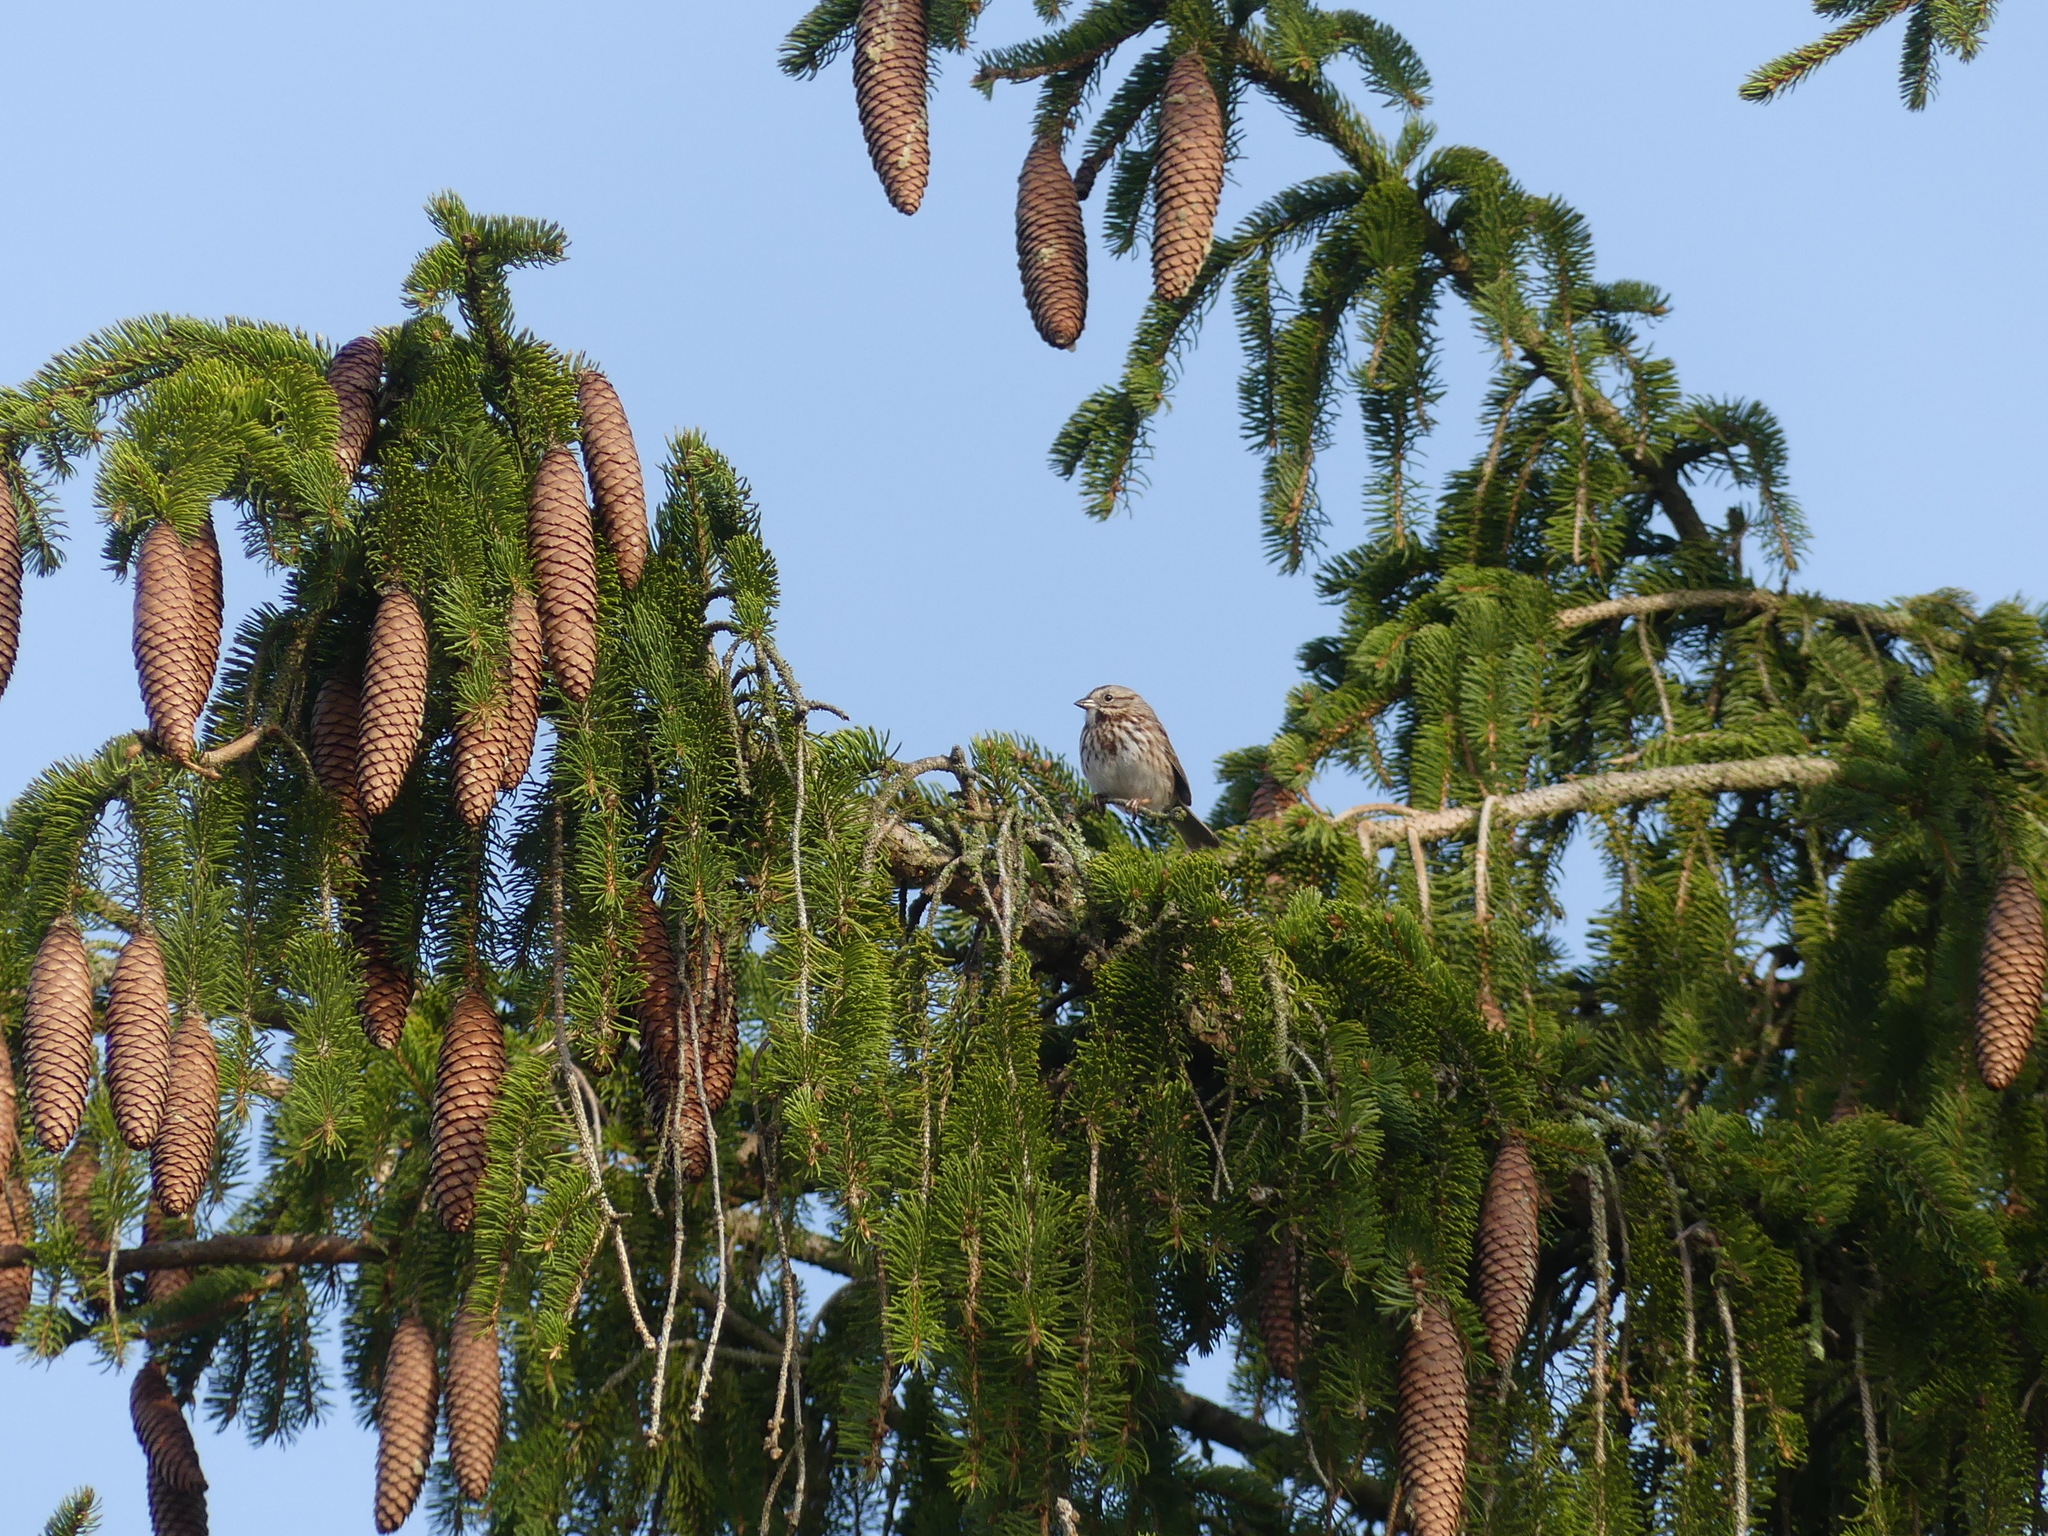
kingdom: Animalia
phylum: Chordata
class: Aves
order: Passeriformes
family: Passerellidae
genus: Melospiza
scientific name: Melospiza melodia
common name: Song sparrow
